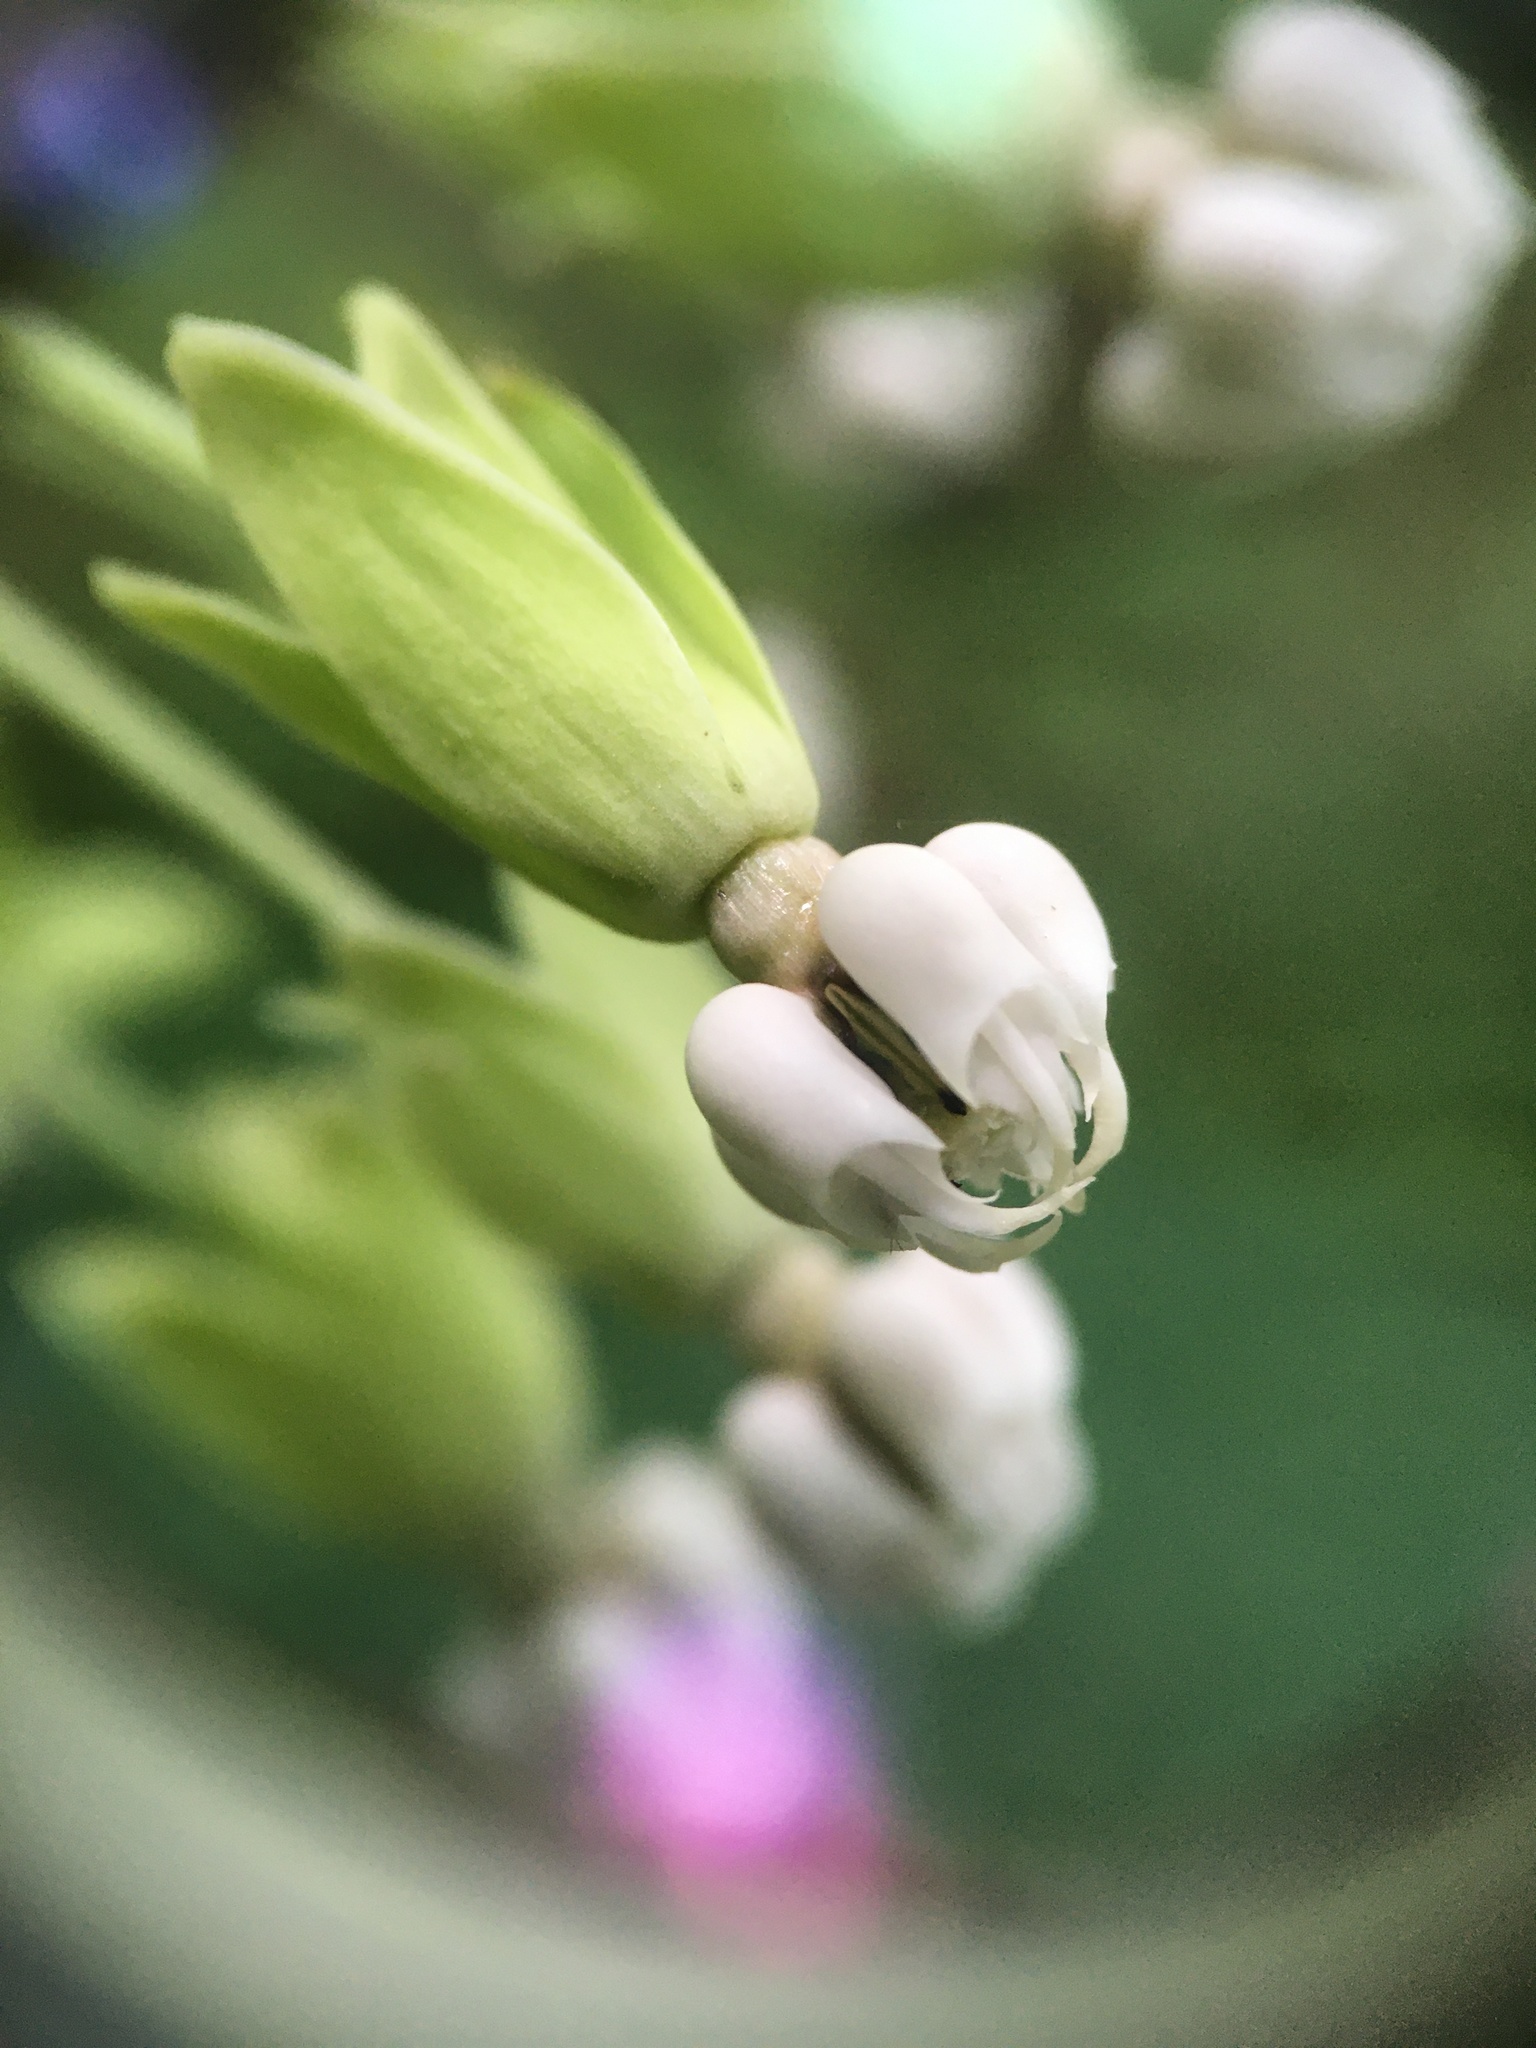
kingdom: Plantae
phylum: Tracheophyta
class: Magnoliopsida
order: Gentianales
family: Apocynaceae
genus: Asclepias
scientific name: Asclepias exaltata
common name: Poke milkweed
